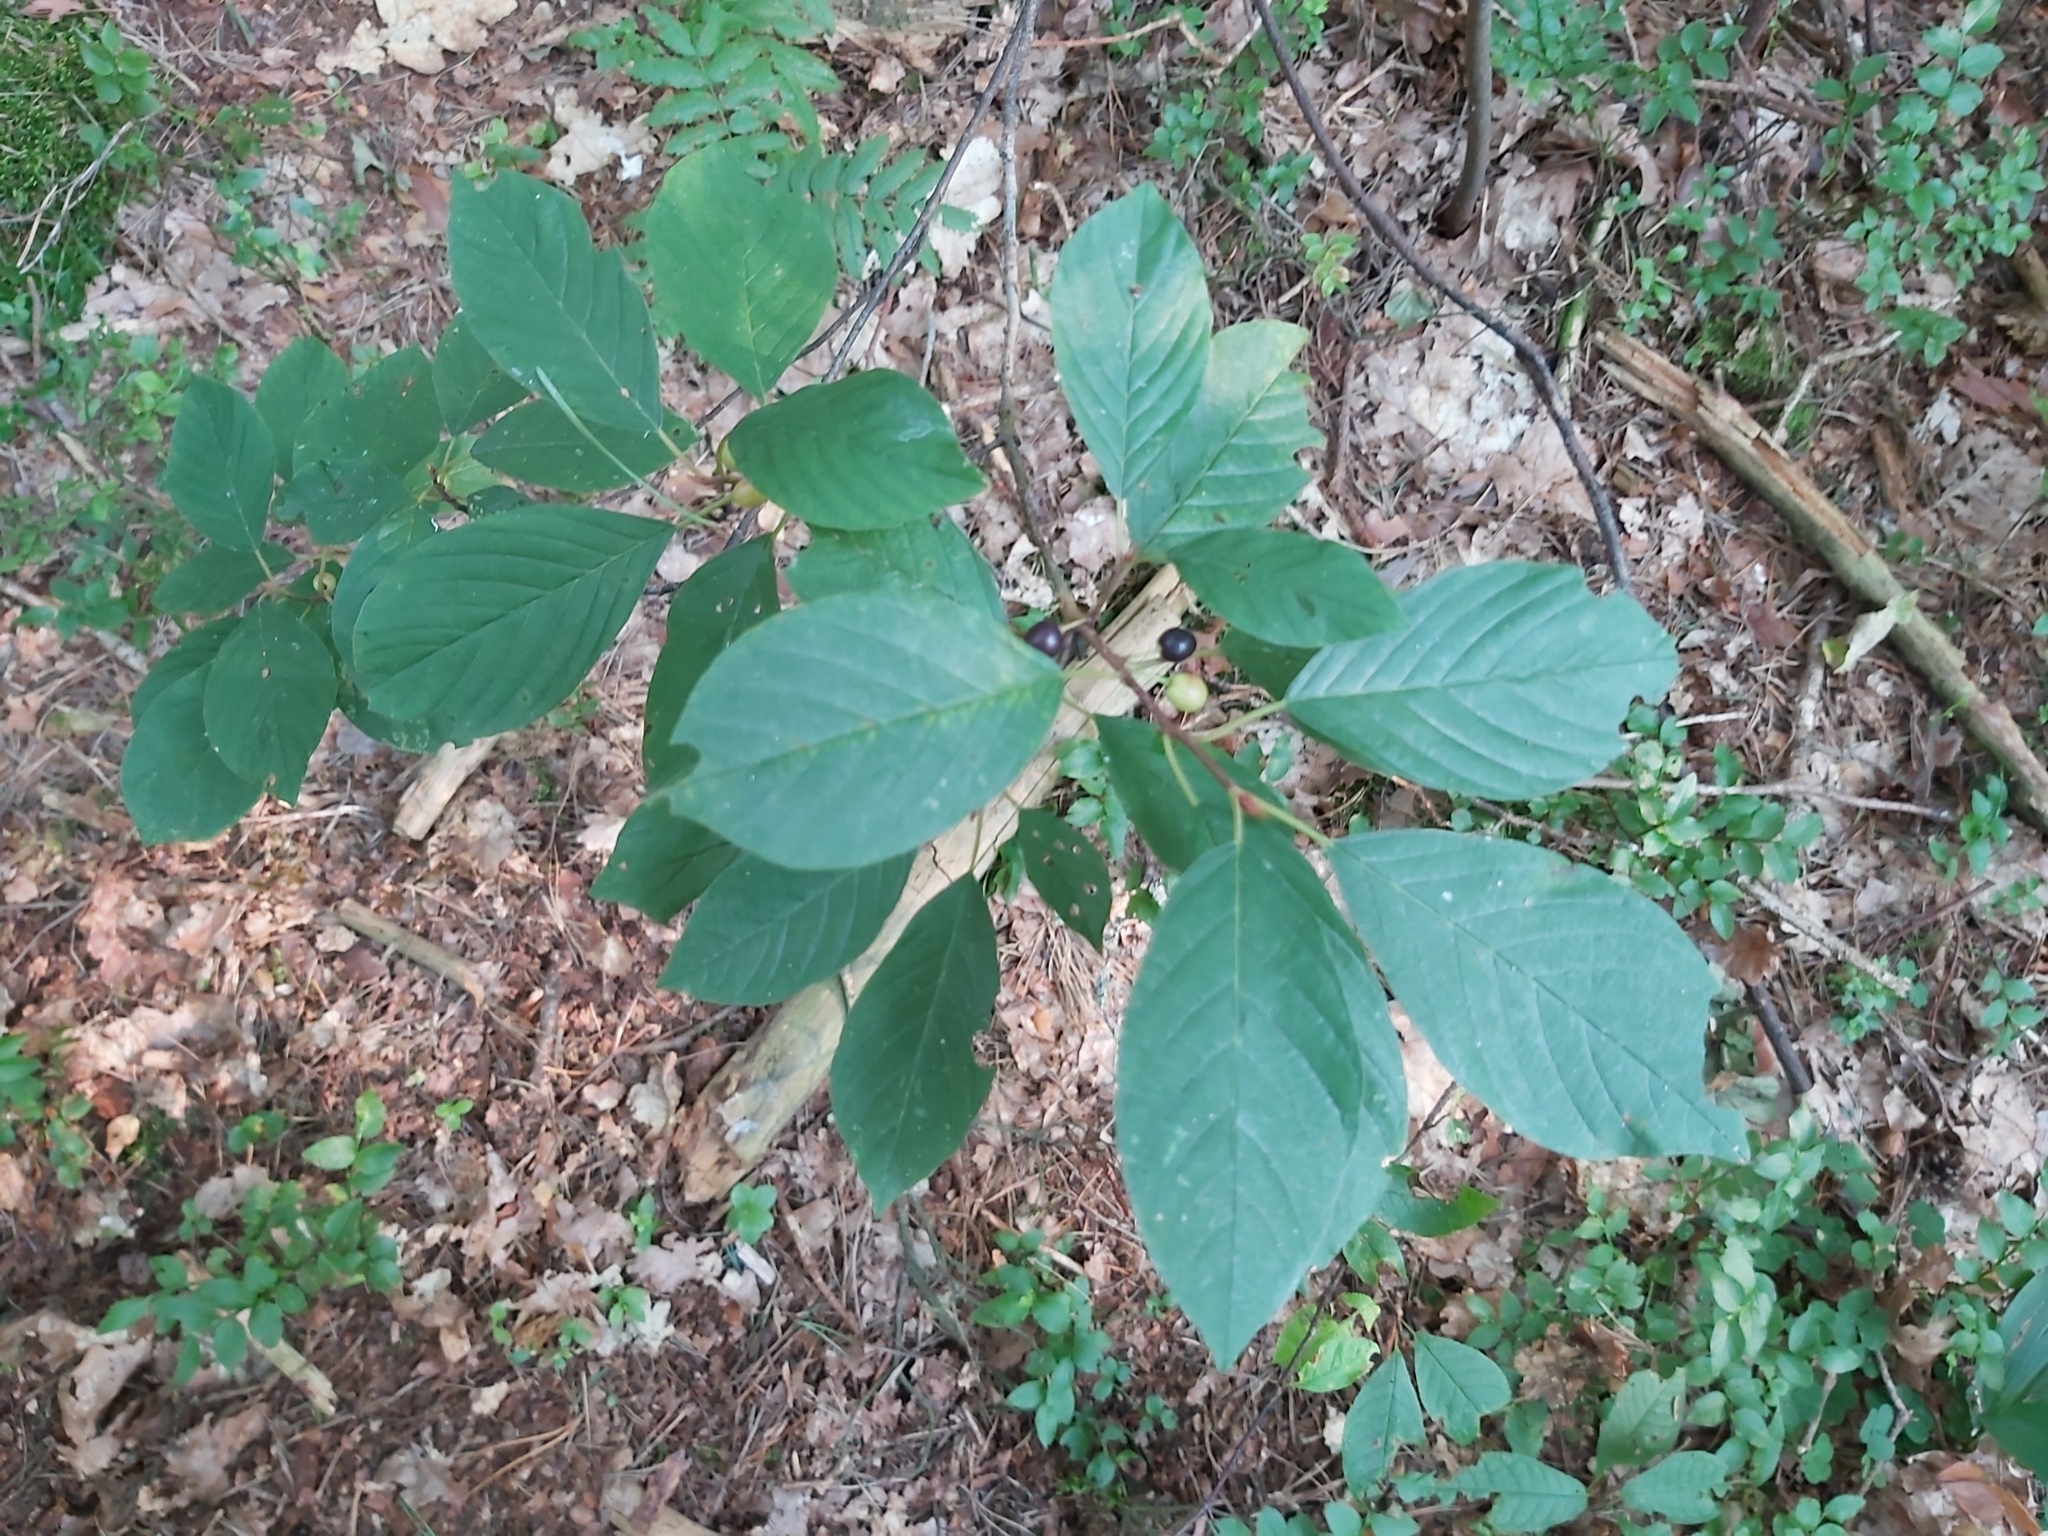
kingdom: Plantae
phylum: Tracheophyta
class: Magnoliopsida
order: Rosales
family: Rhamnaceae
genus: Frangula
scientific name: Frangula alnus
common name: Alder buckthorn
